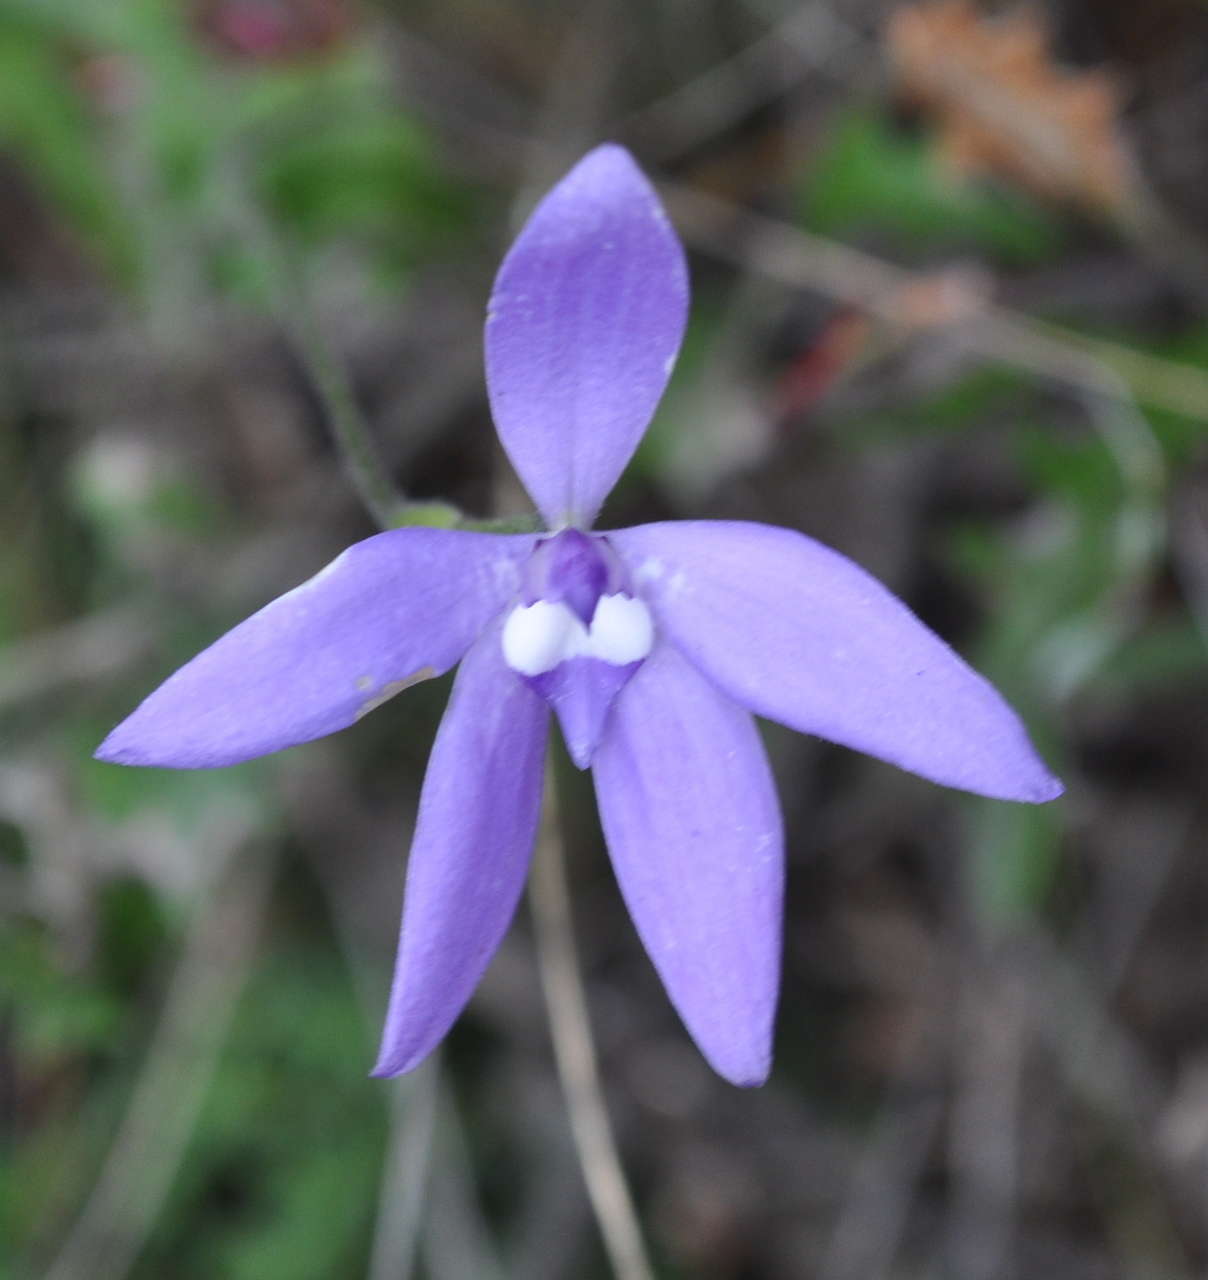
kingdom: Plantae
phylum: Tracheophyta
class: Liliopsida
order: Asparagales
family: Orchidaceae
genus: Caladenia
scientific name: Caladenia major
